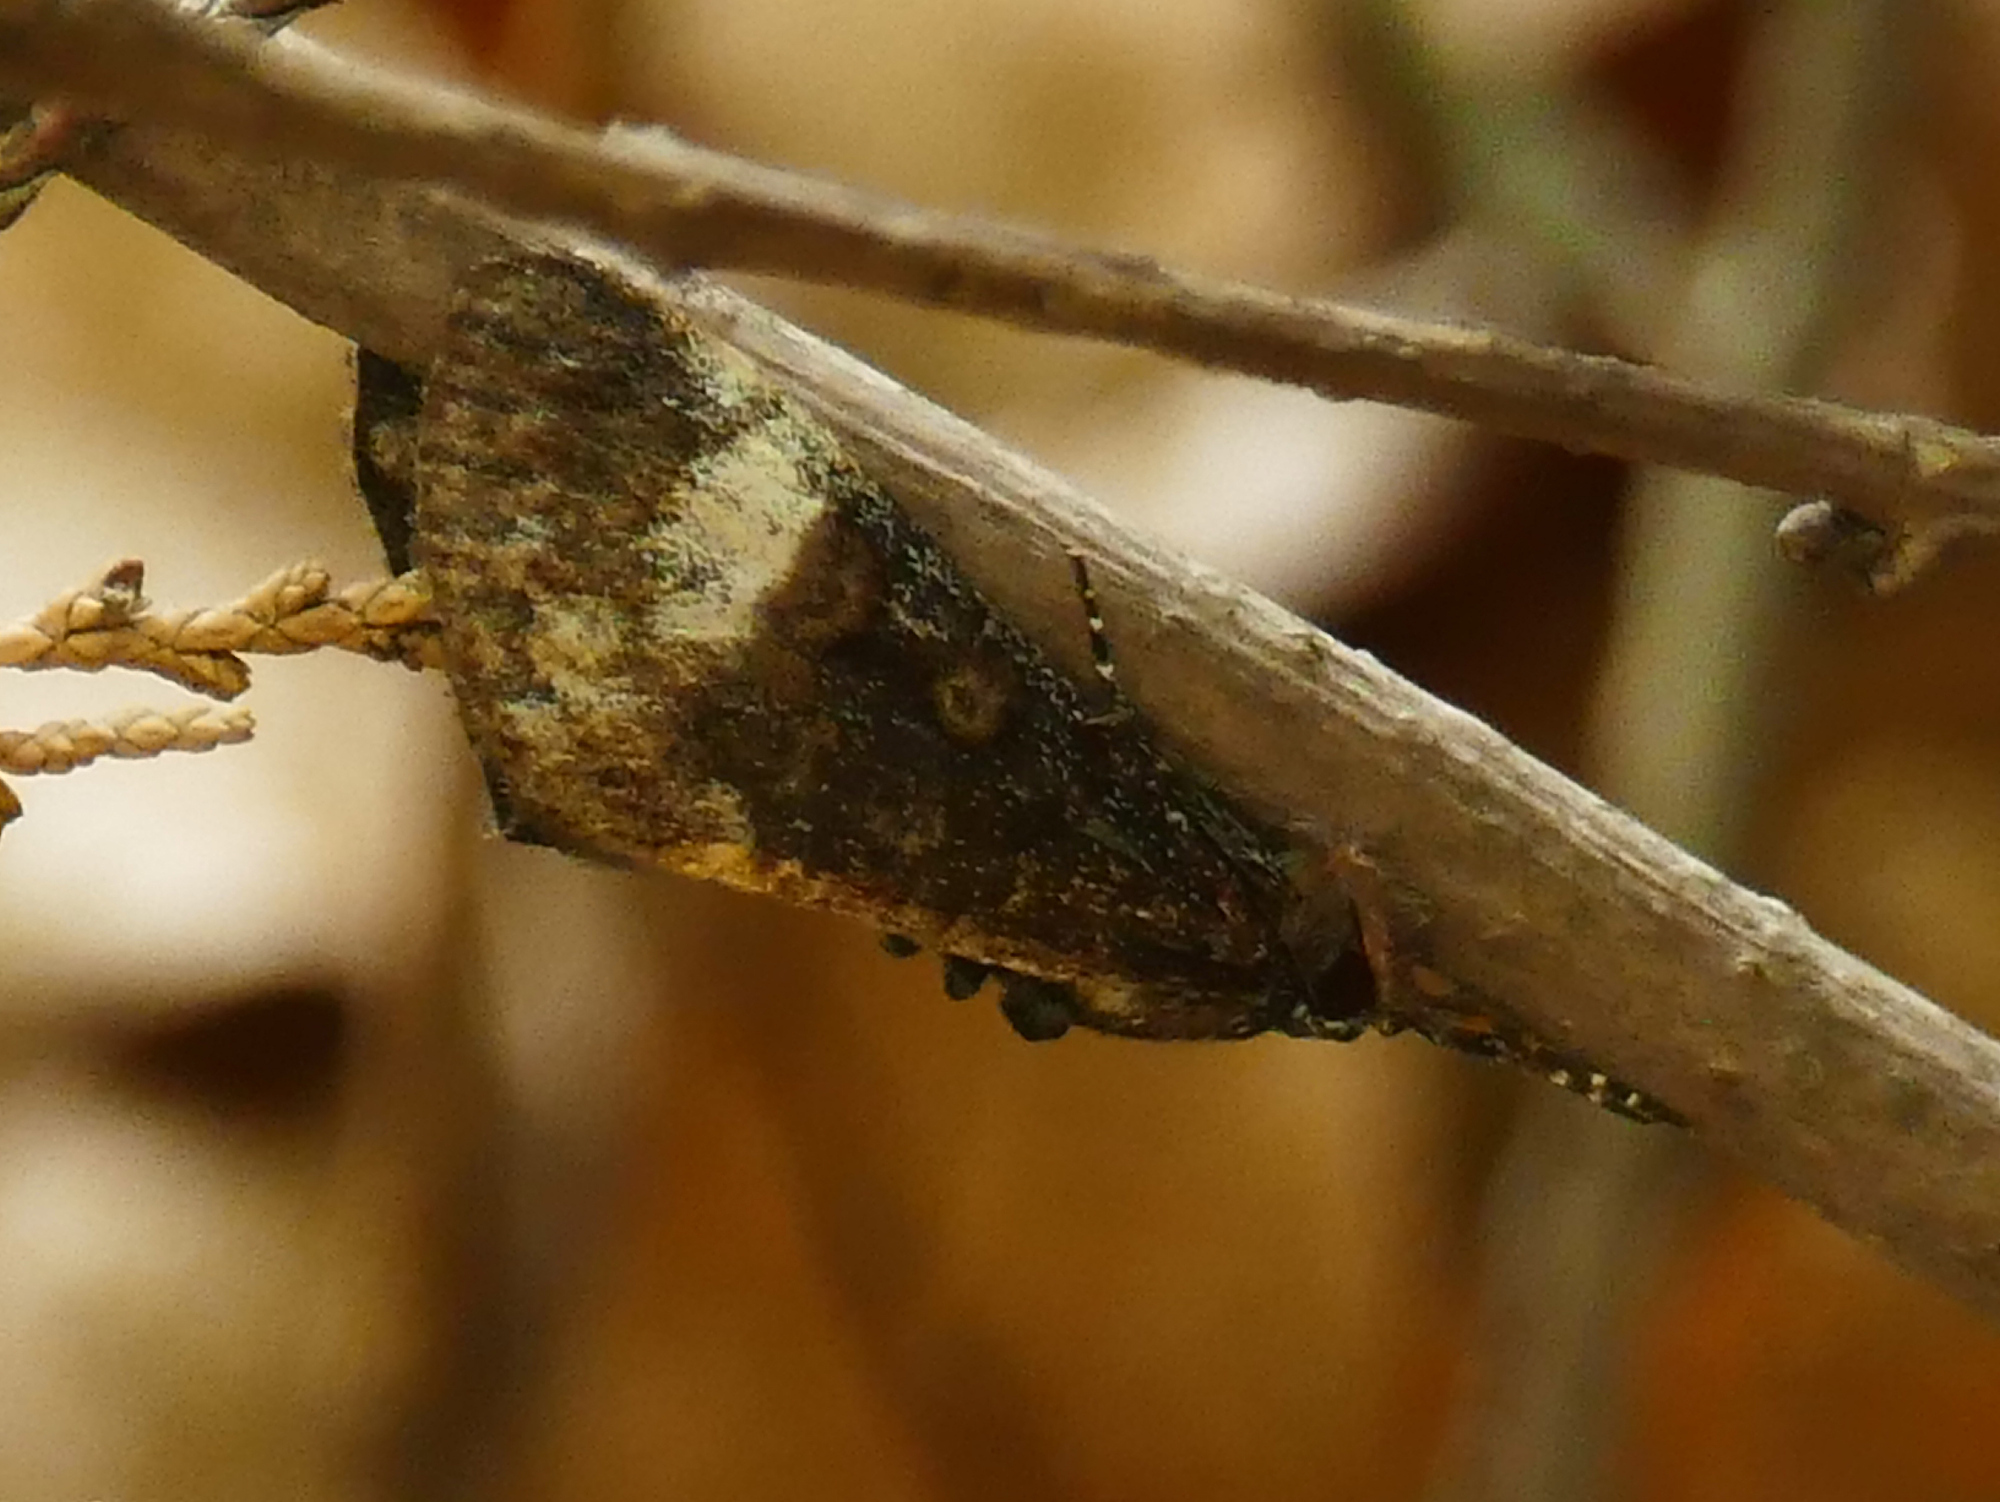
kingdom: Animalia
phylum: Arthropoda
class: Insecta
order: Lepidoptera
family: Noctuidae
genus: Gerra
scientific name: Gerra sevorsa
